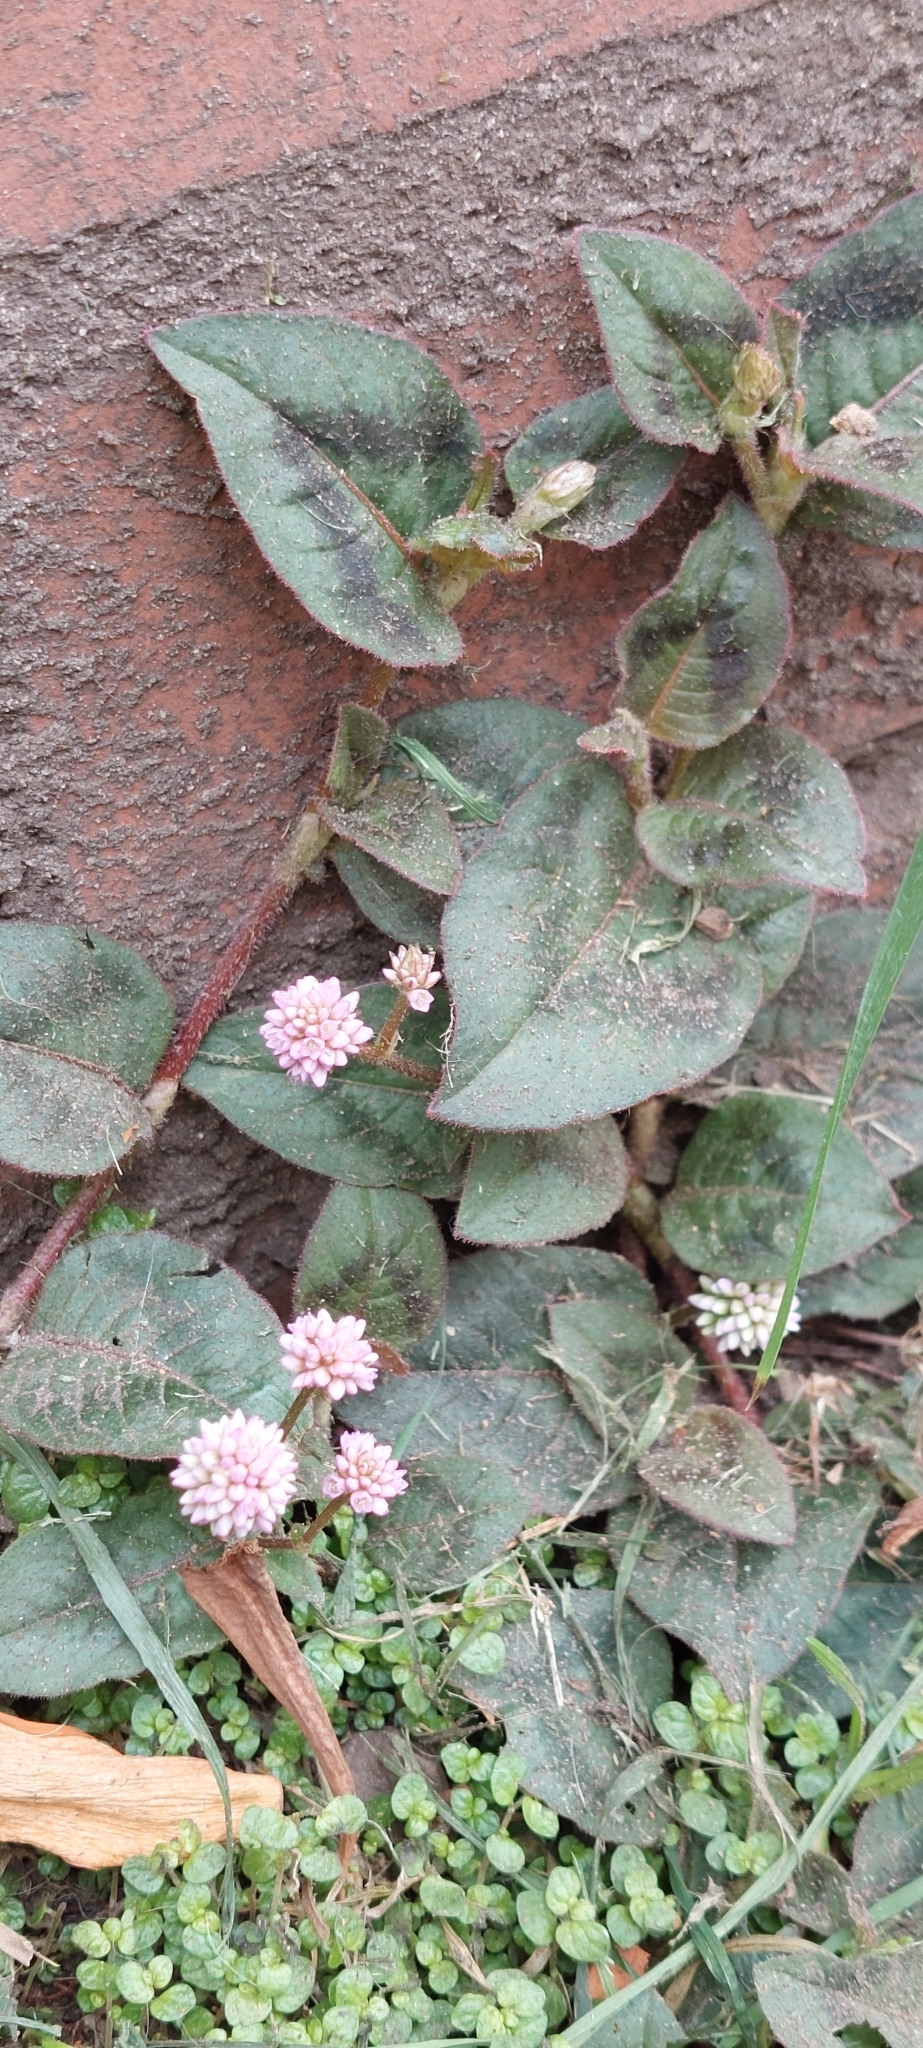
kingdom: Plantae
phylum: Tracheophyta
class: Magnoliopsida
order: Caryophyllales
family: Polygonaceae
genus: Persicaria
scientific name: Persicaria capitata
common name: Pinkhead smartweed
